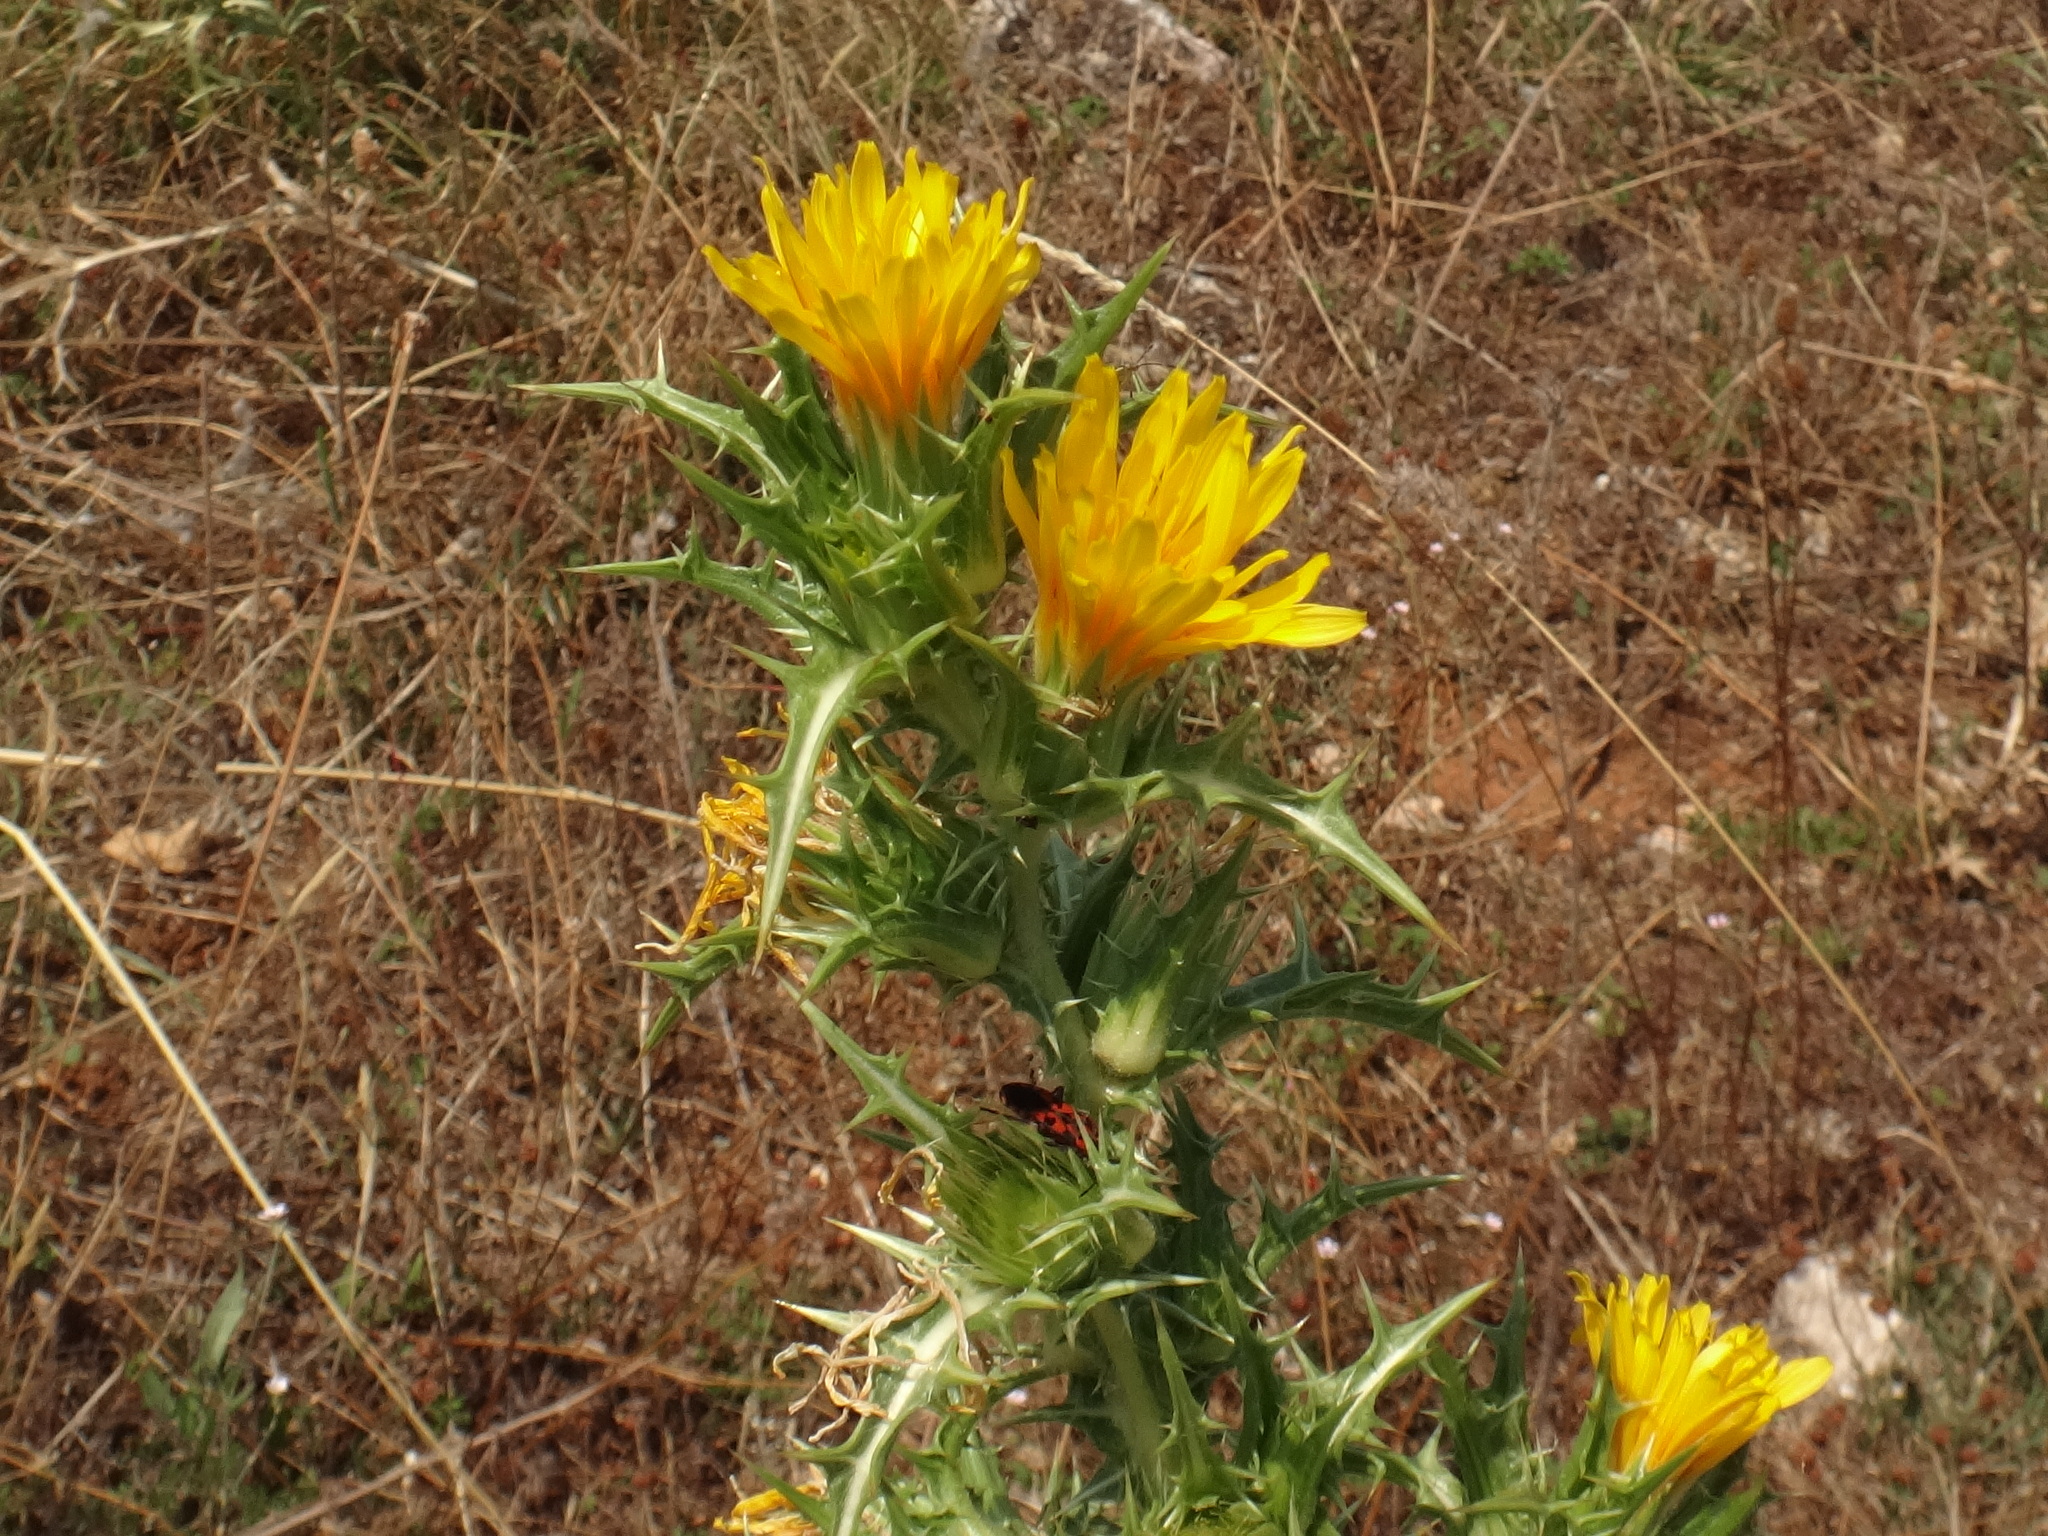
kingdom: Plantae
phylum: Tracheophyta
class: Magnoliopsida
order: Asterales
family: Asteraceae
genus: Scolymus
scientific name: Scolymus hispanicus
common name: Golden thistle
